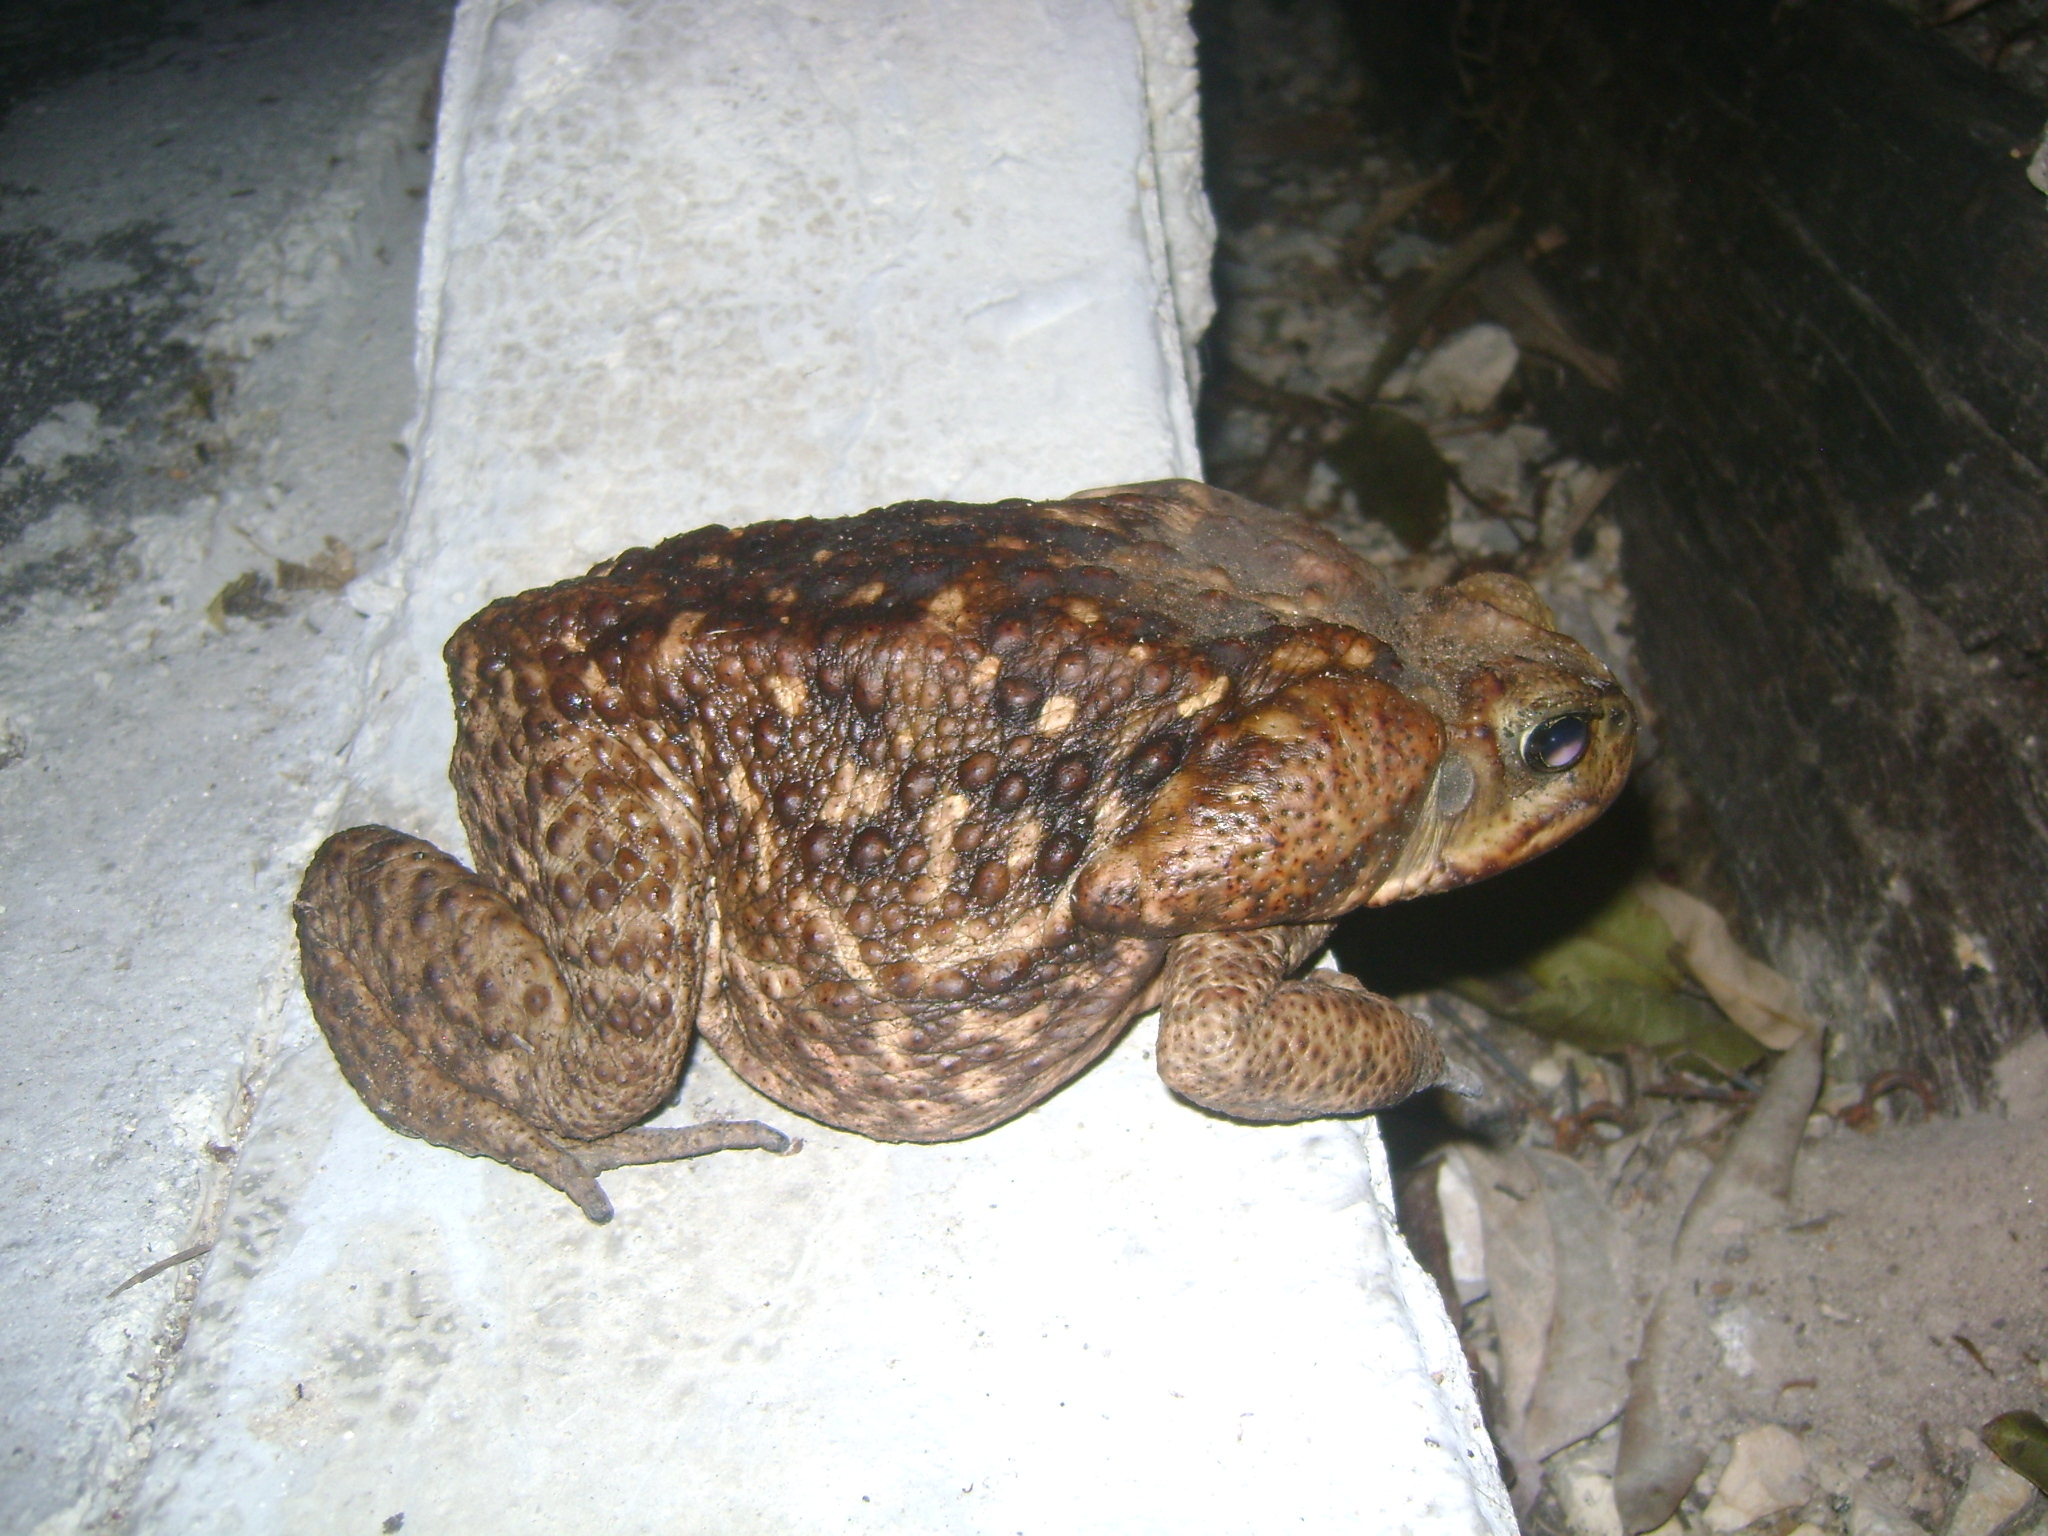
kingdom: Animalia
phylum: Chordata
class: Amphibia
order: Anura
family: Bufonidae
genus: Rhinella
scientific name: Rhinella horribilis
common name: Mesoamerican cane toad
